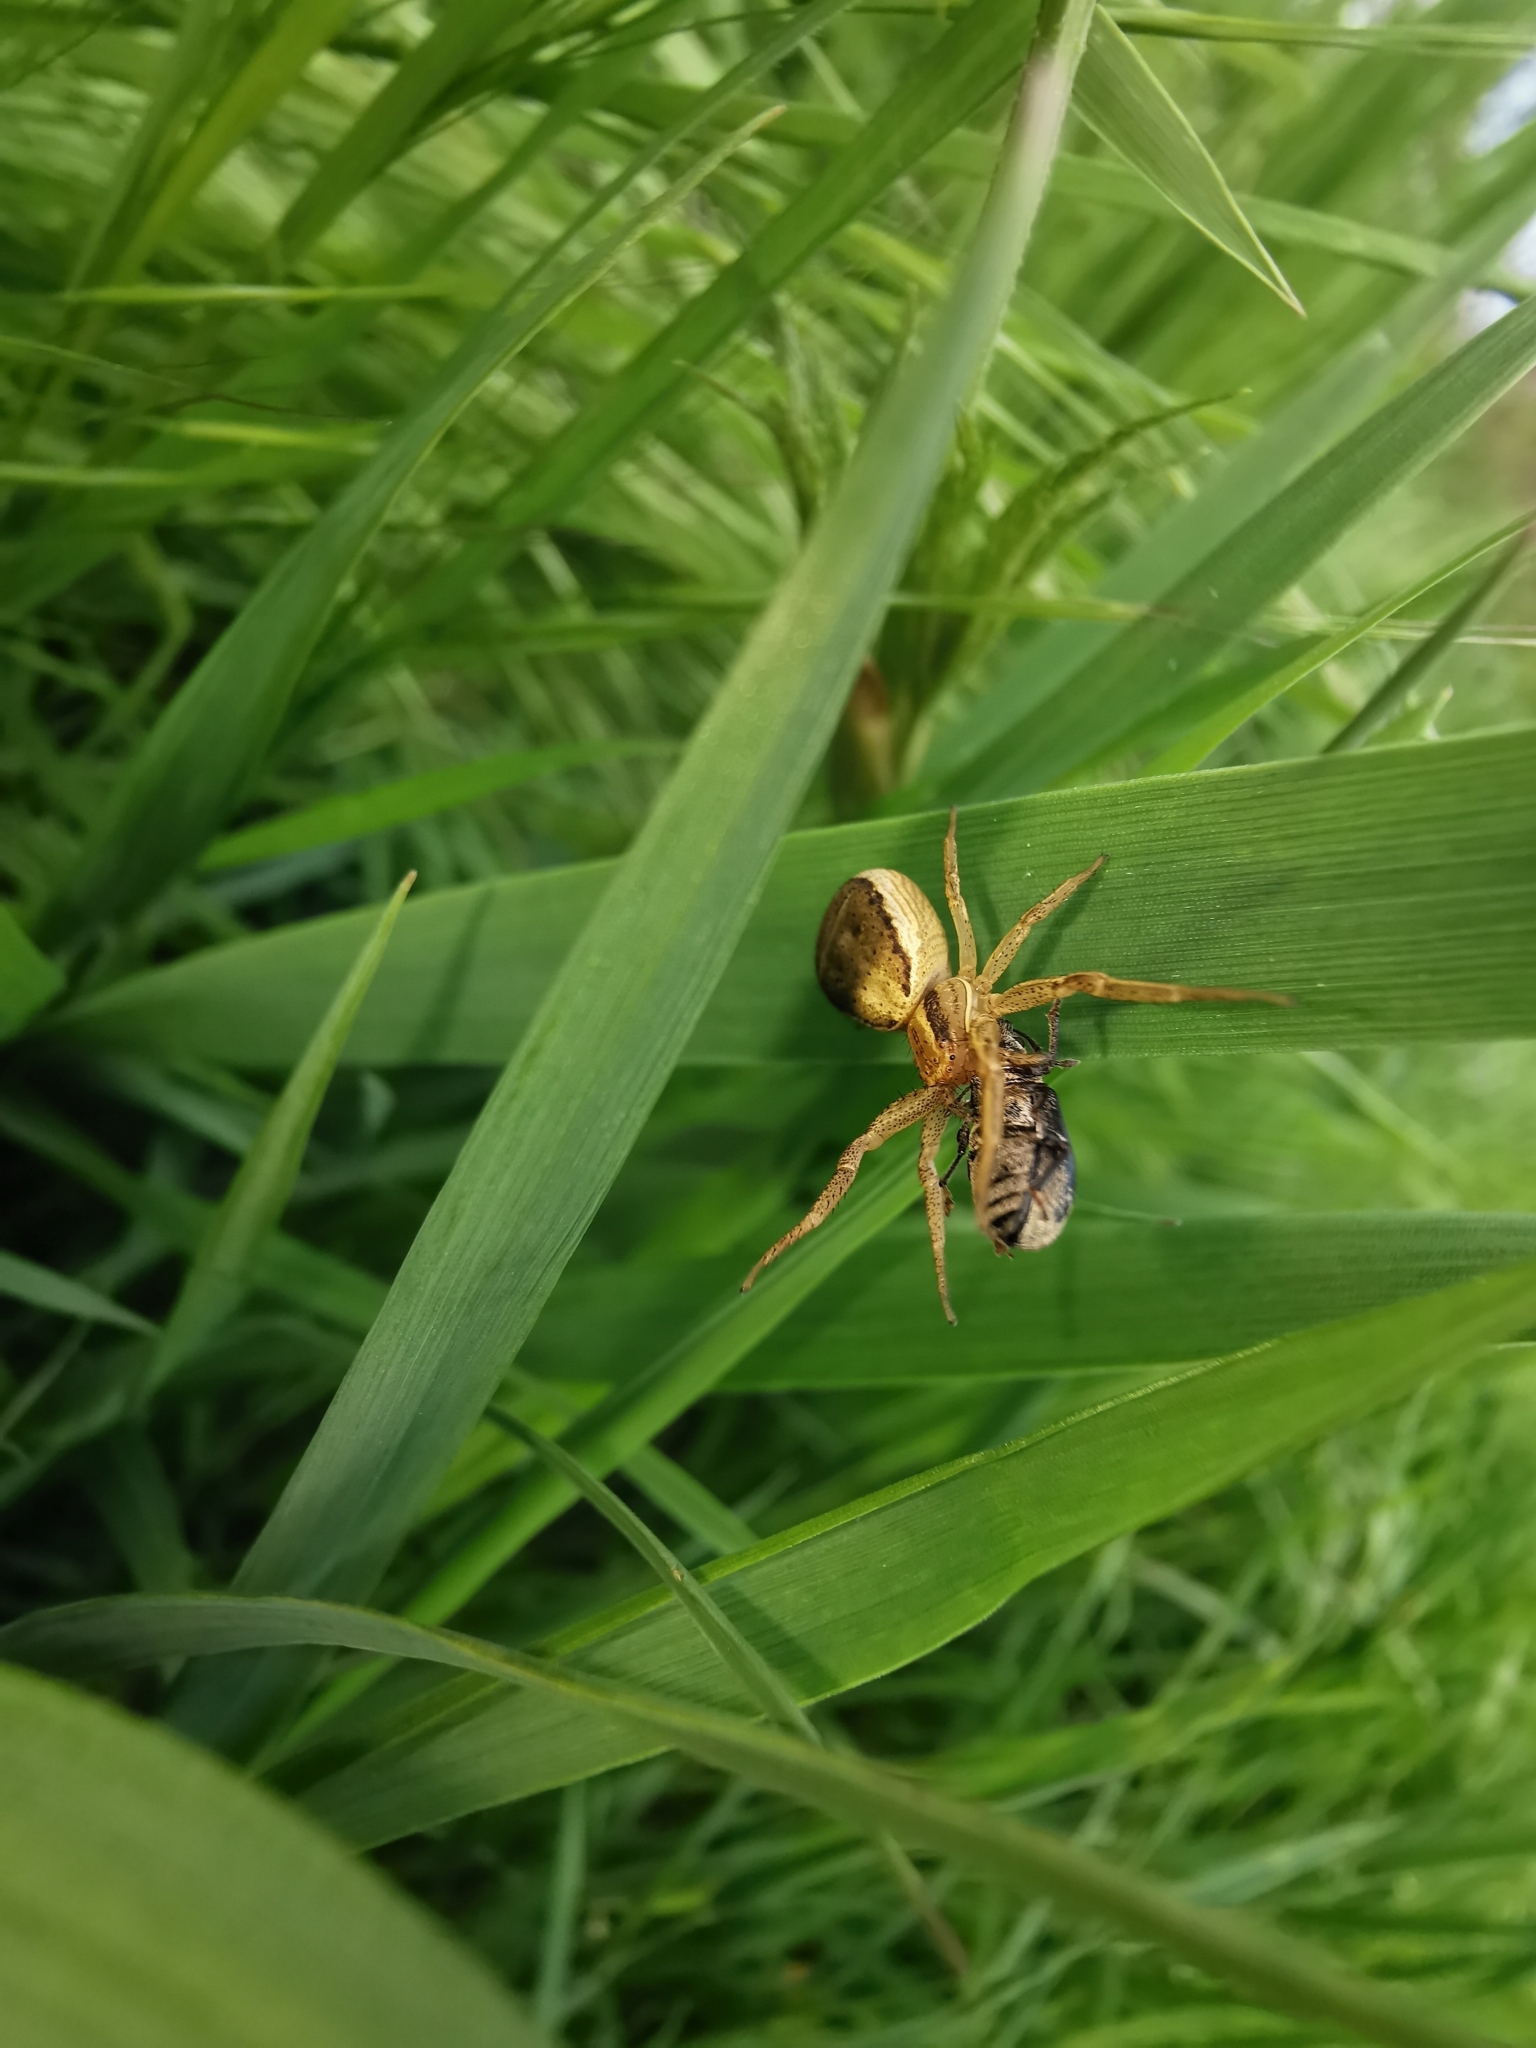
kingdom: Animalia
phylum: Arthropoda
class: Arachnida
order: Araneae
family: Thomisidae
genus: Xysticus
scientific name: Xysticus ulmi
